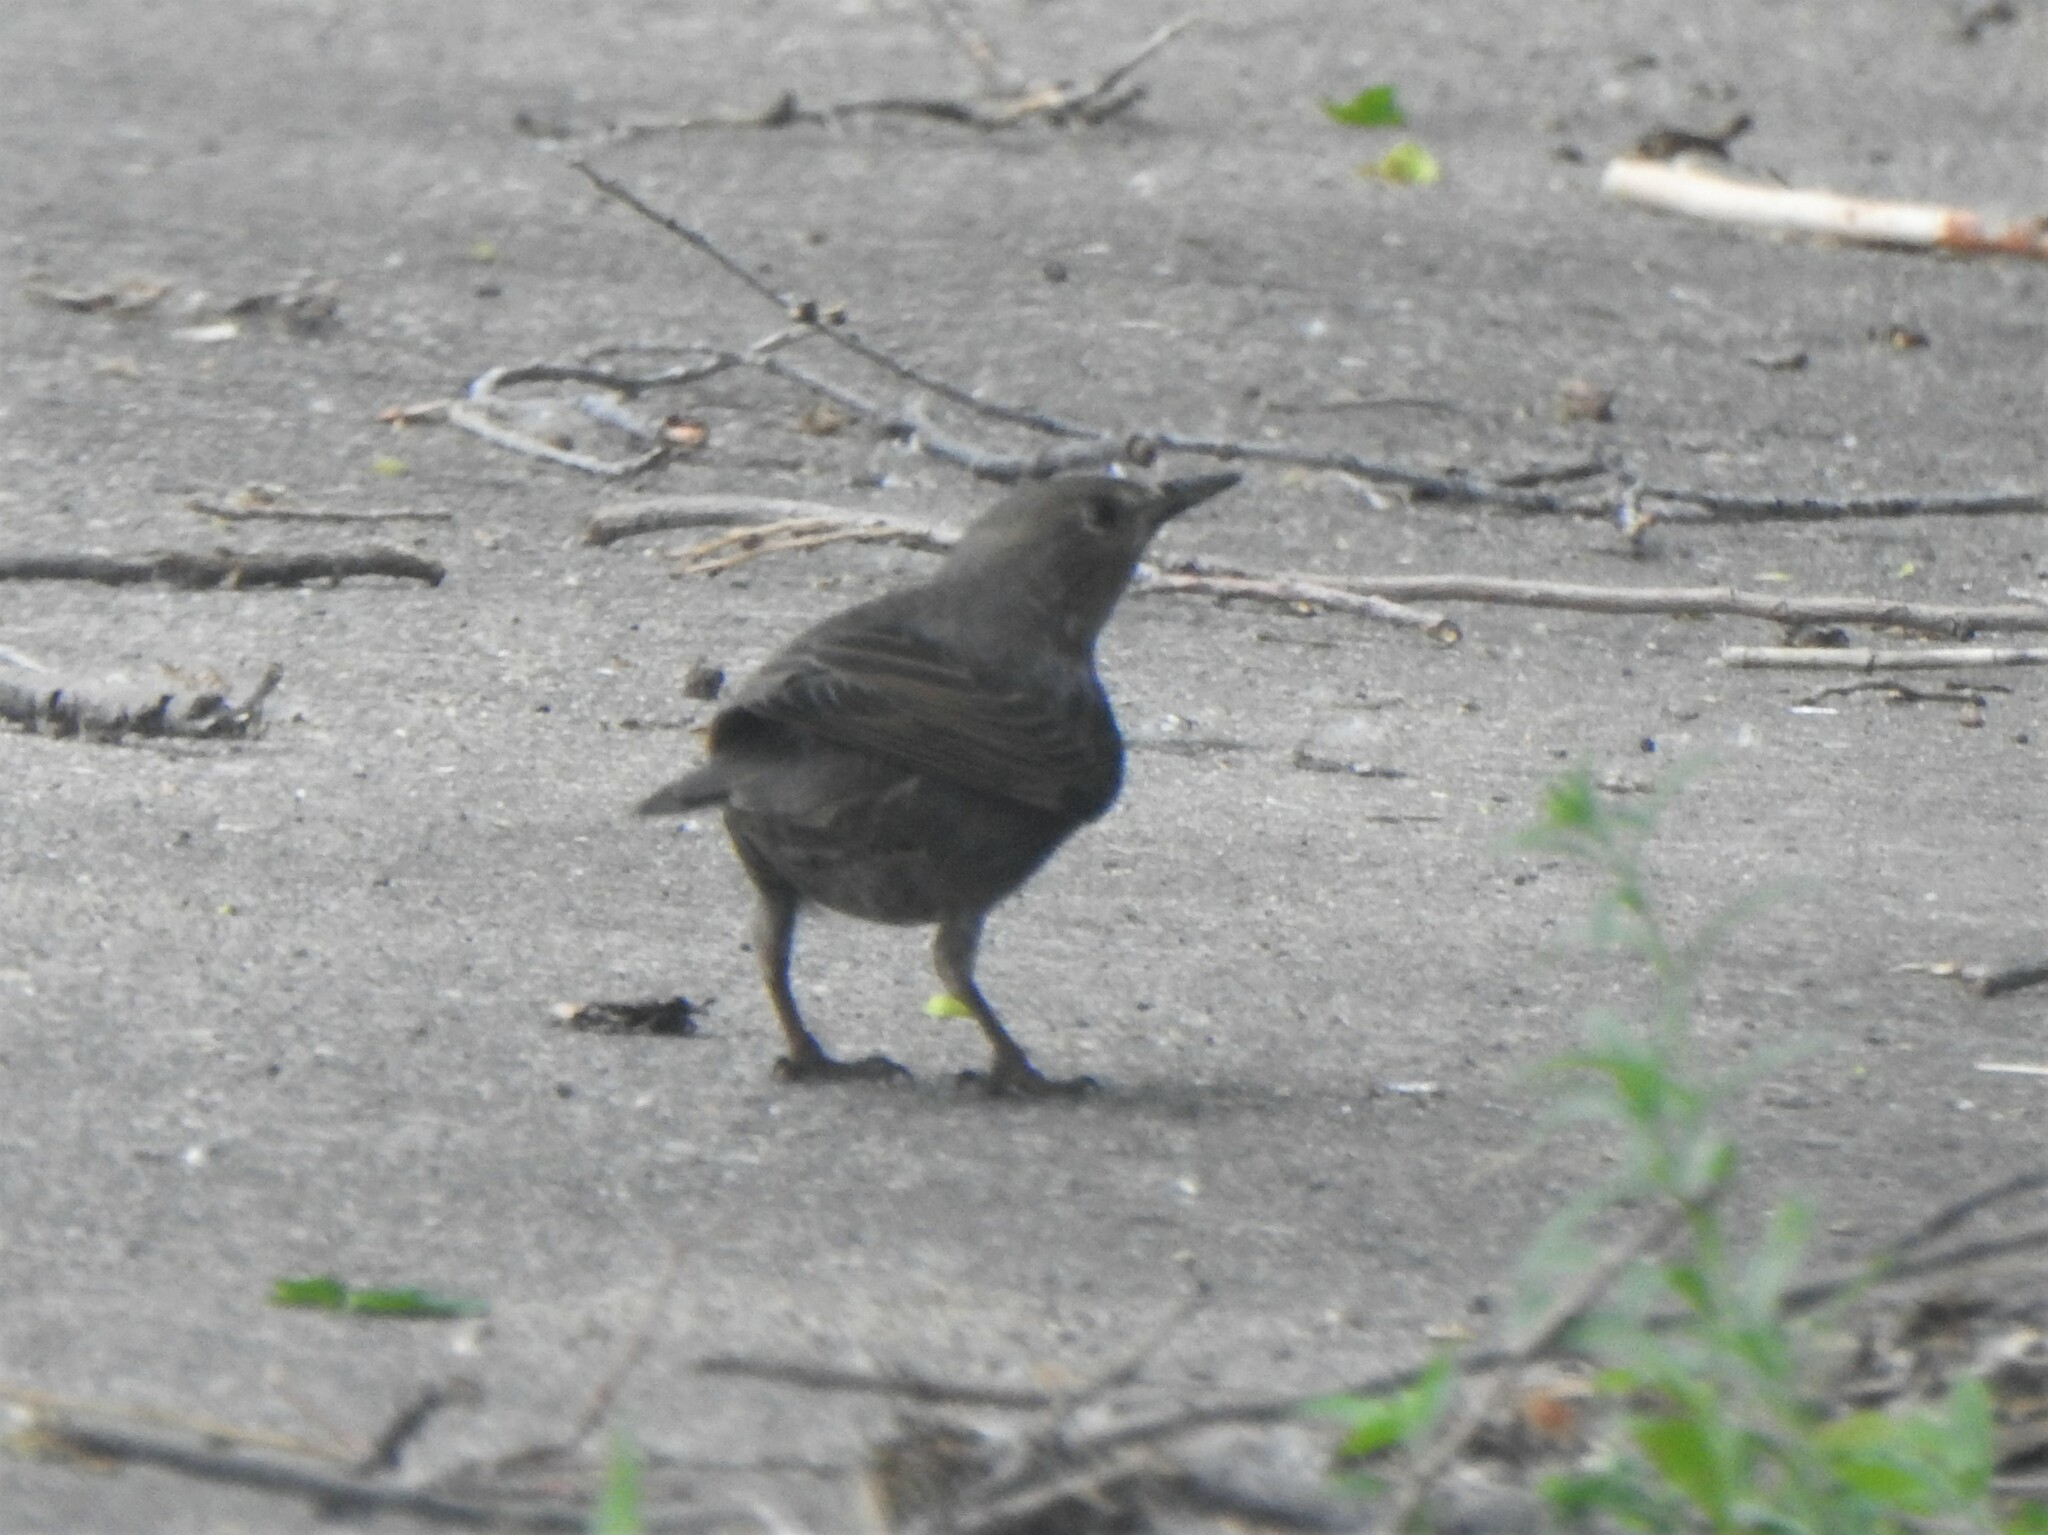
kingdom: Animalia
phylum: Chordata
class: Aves
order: Passeriformes
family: Sturnidae
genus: Sturnus
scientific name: Sturnus vulgaris
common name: Common starling
